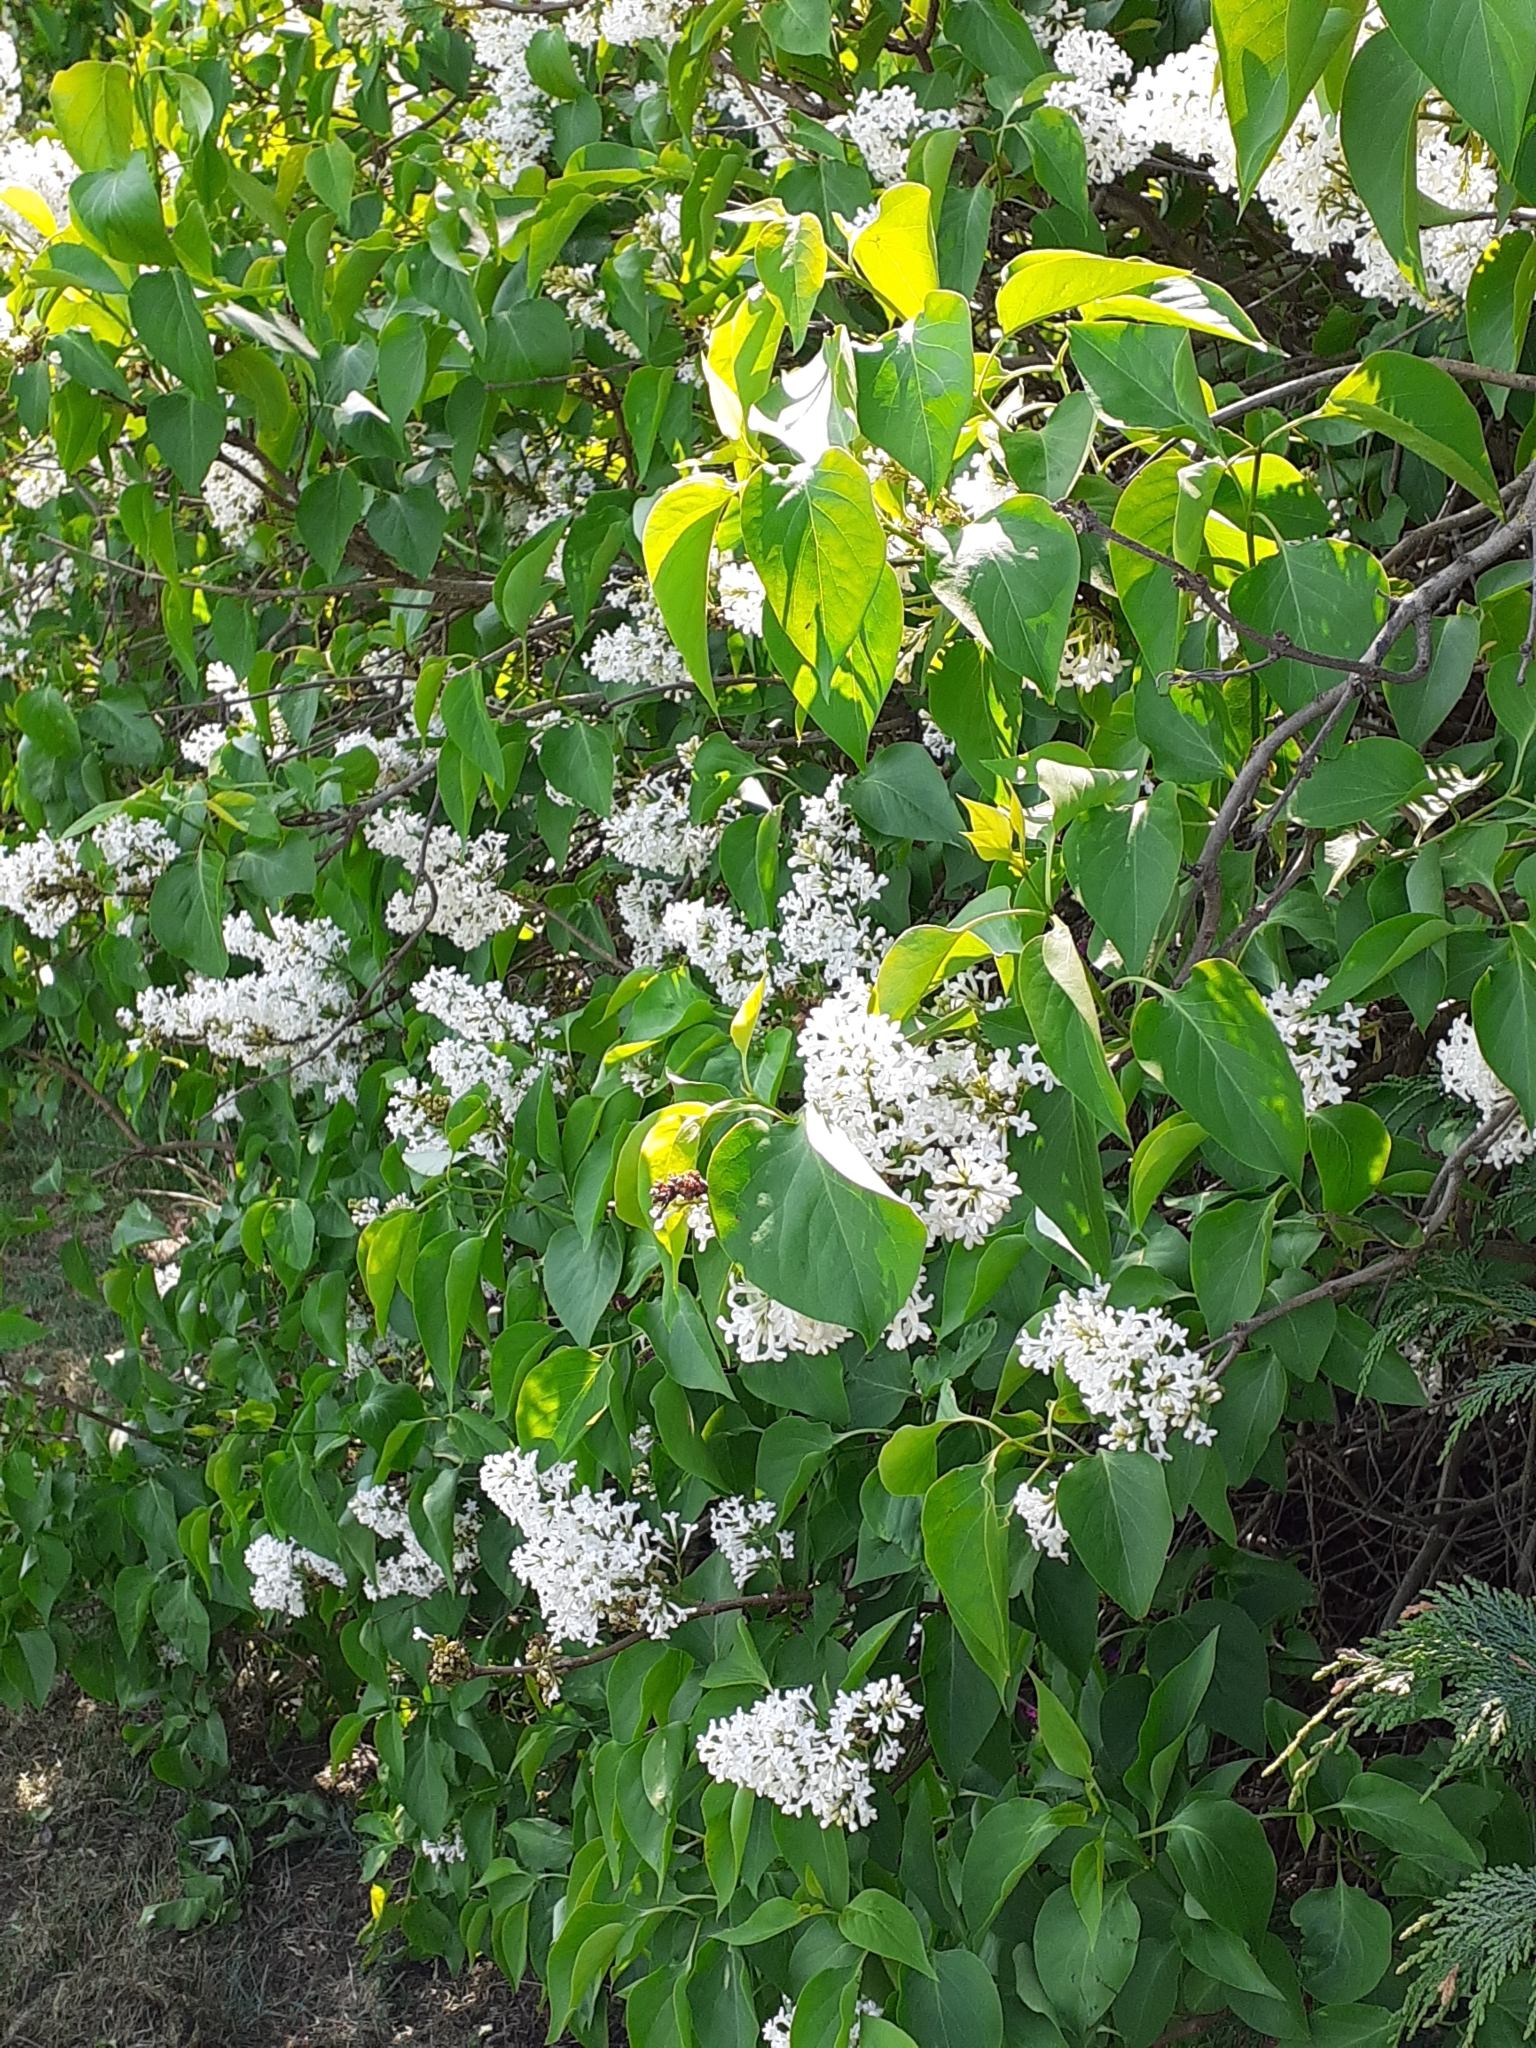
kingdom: Plantae
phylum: Tracheophyta
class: Magnoliopsida
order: Lamiales
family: Oleaceae
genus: Syringa
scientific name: Syringa vulgaris
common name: Common lilac
